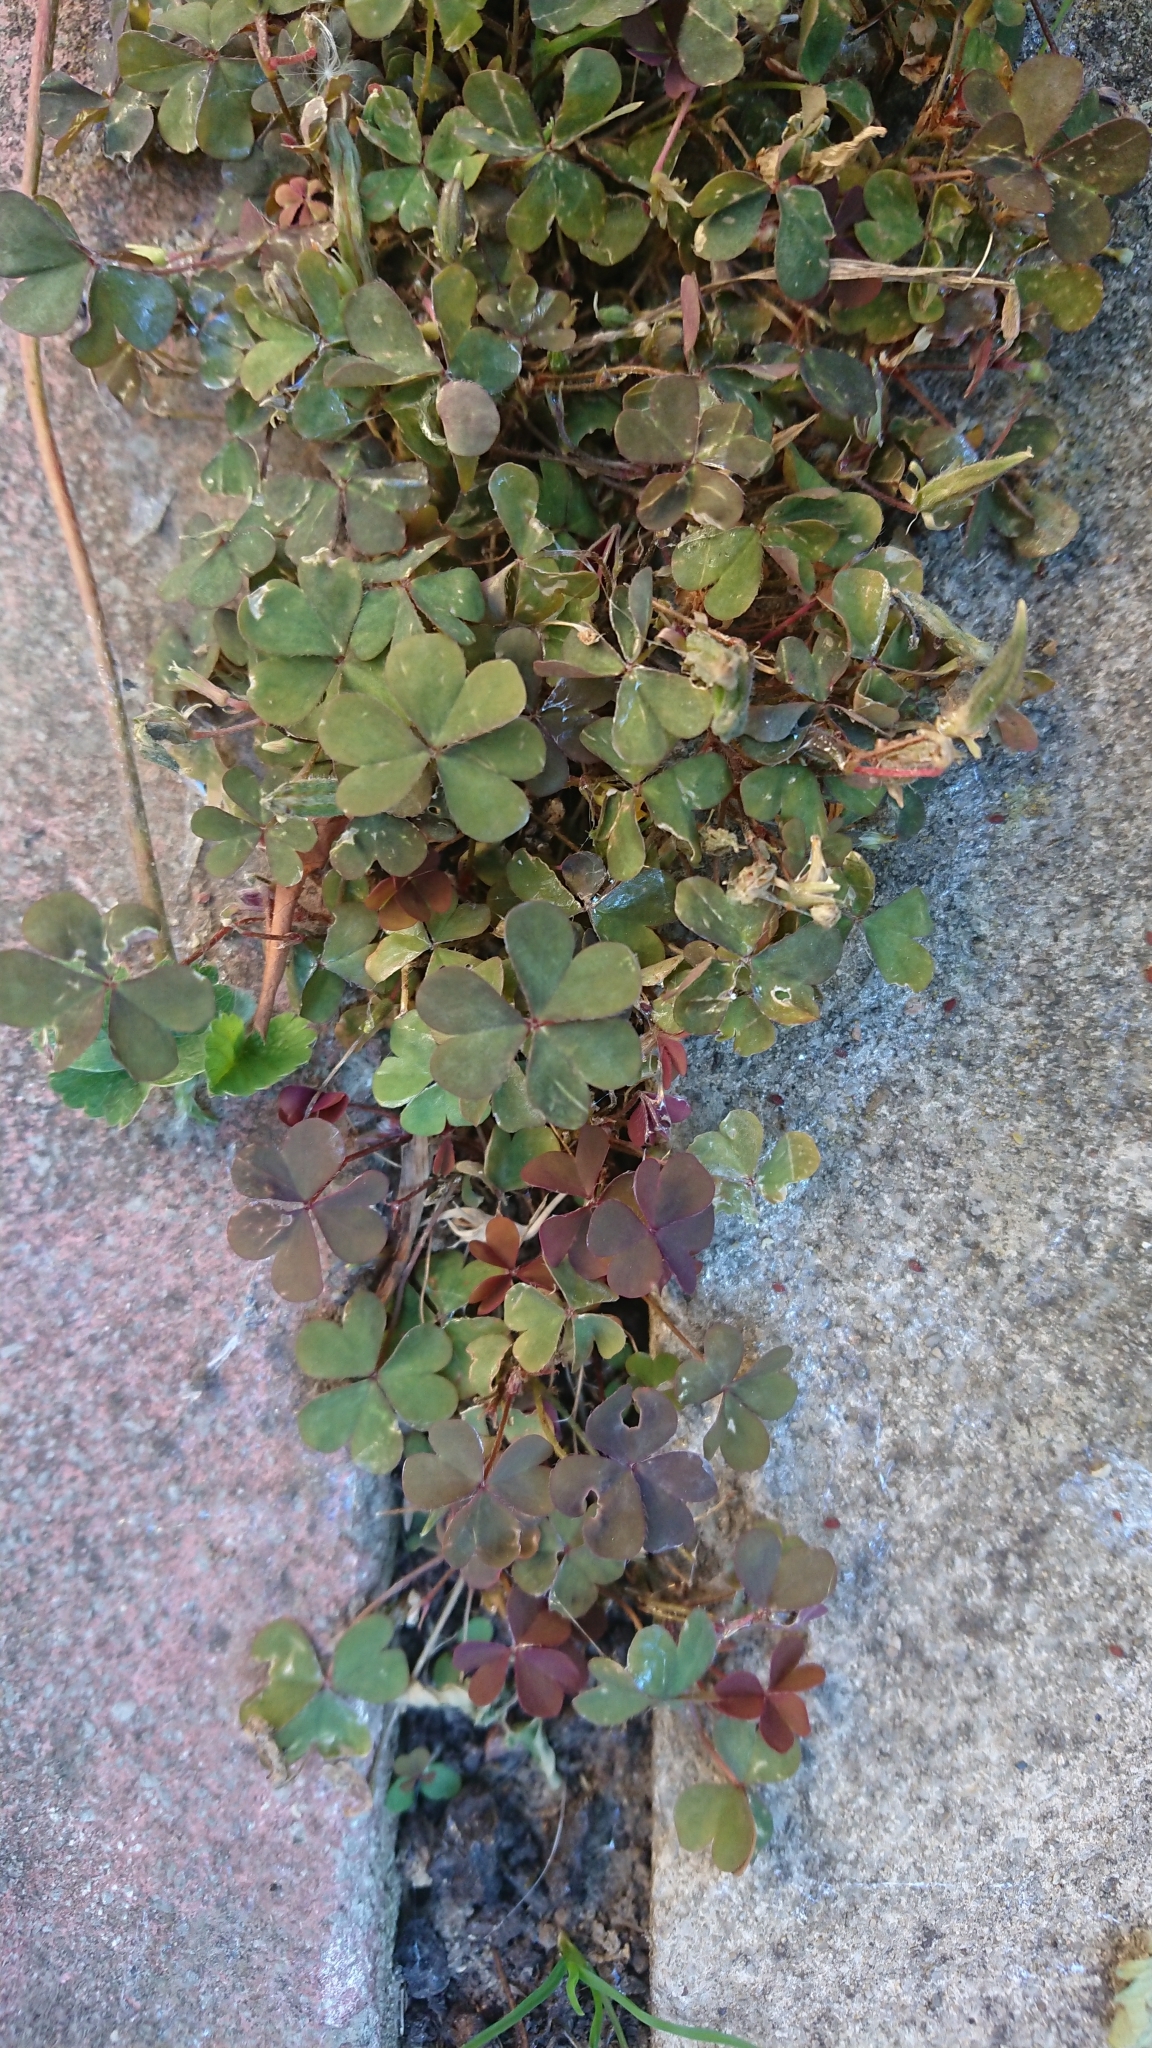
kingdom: Plantae
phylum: Tracheophyta
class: Magnoliopsida
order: Oxalidales
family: Oxalidaceae
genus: Oxalis
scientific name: Oxalis corniculata
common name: Procumbent yellow-sorrel
